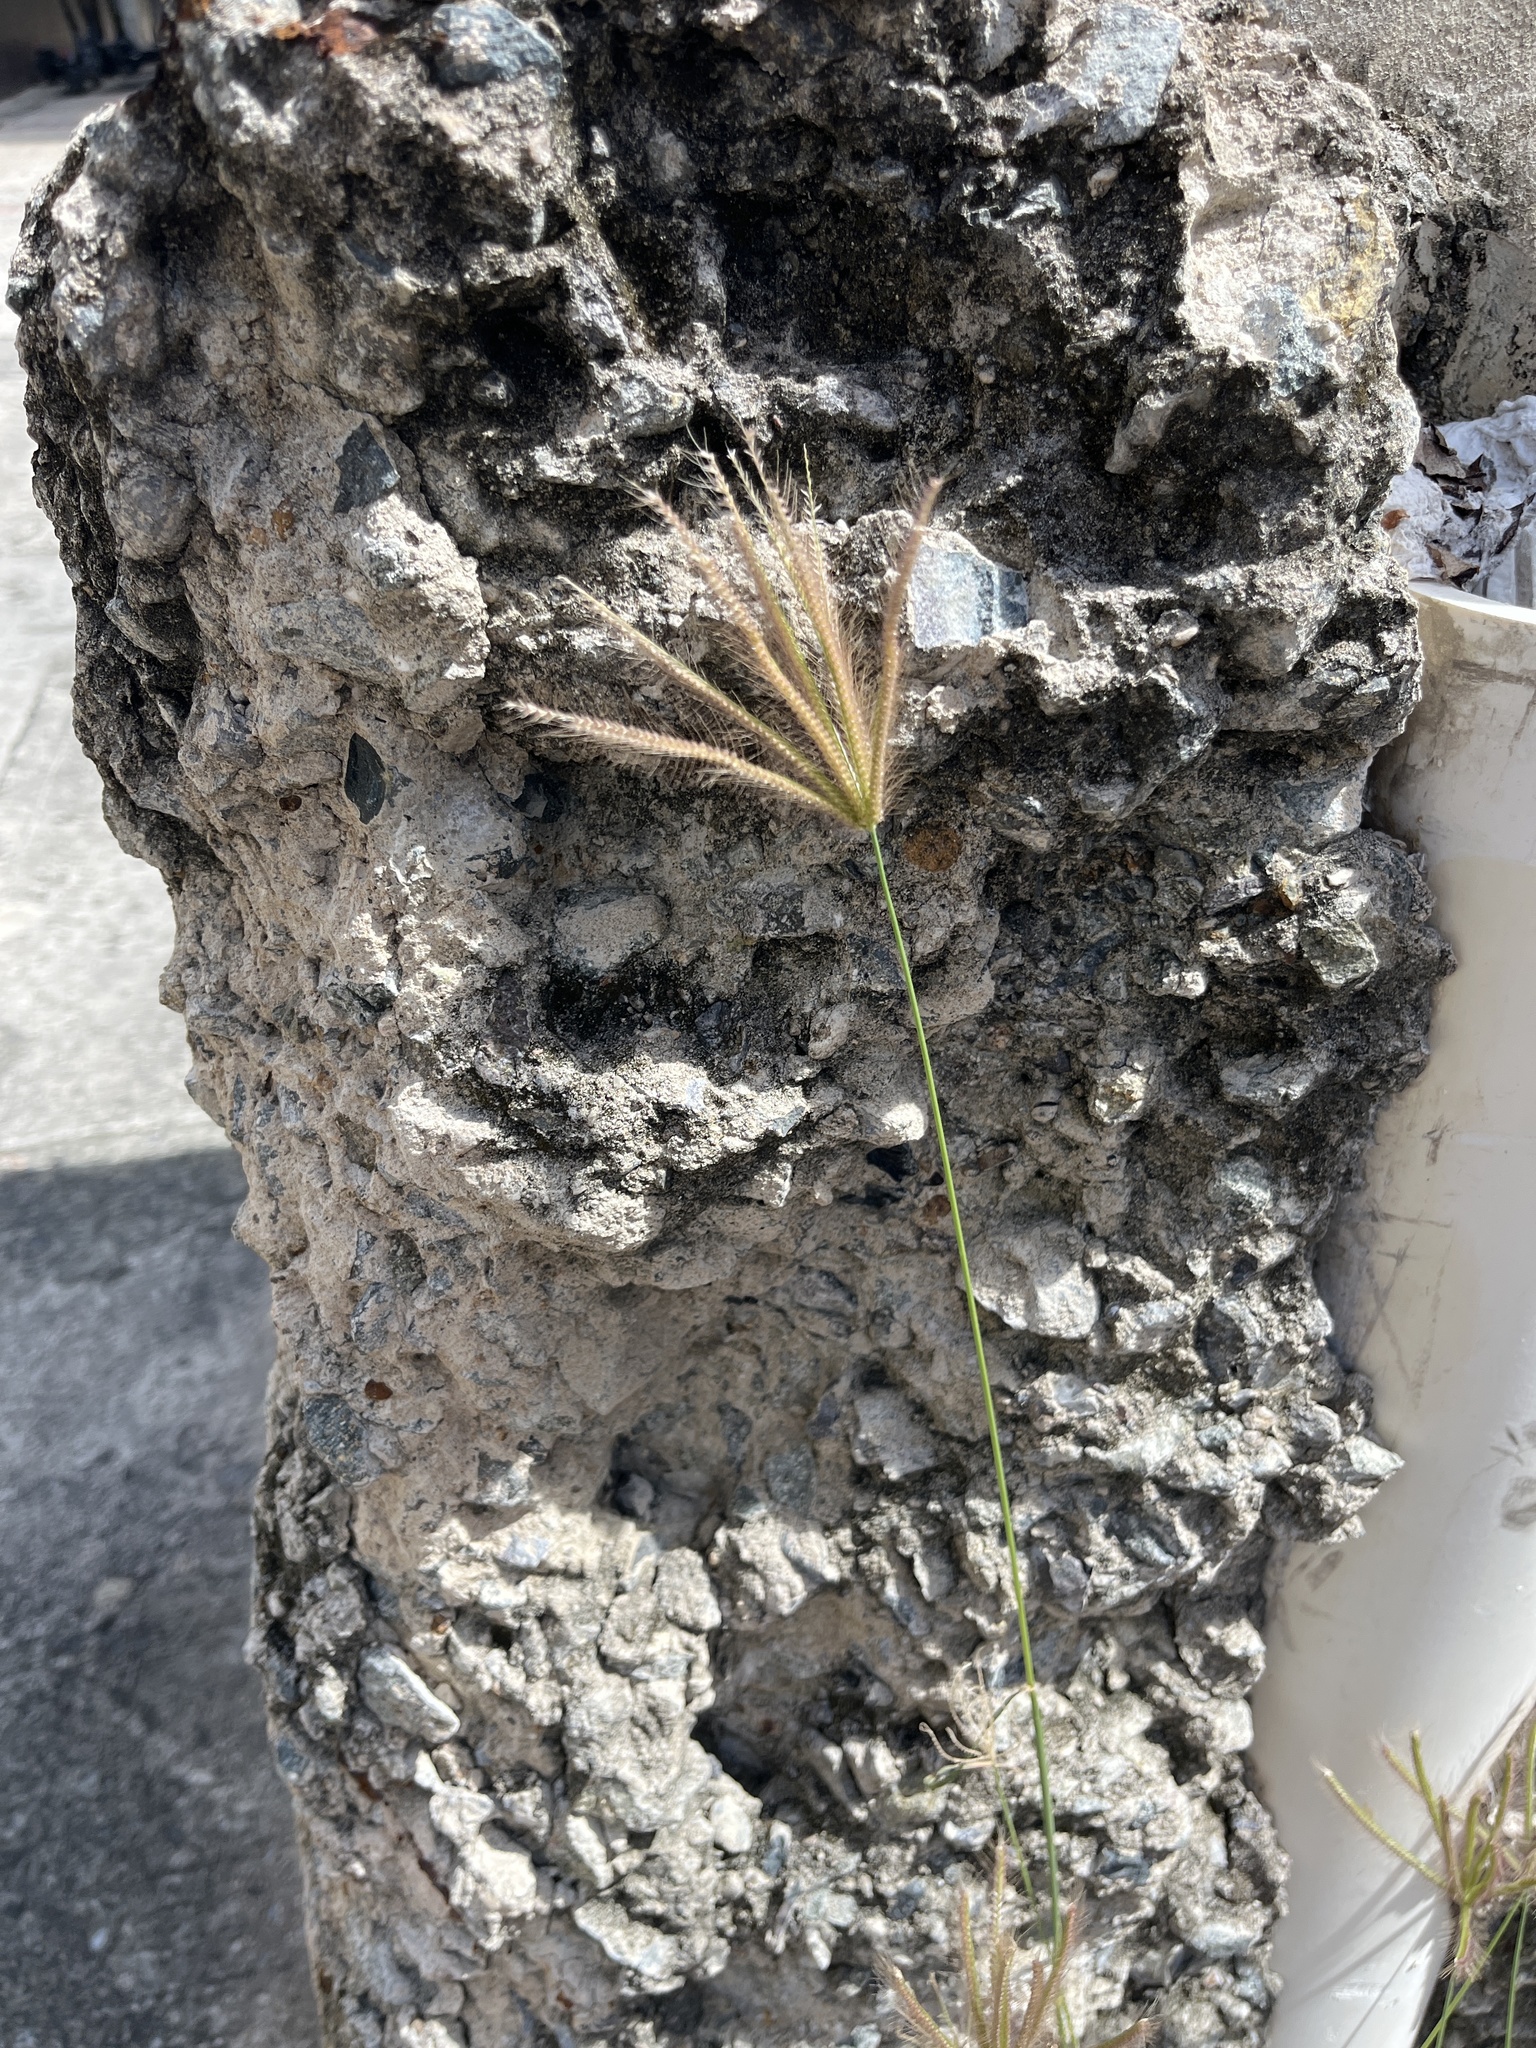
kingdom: Plantae
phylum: Tracheophyta
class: Liliopsida
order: Poales
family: Poaceae
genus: Chloris
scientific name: Chloris barbata
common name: Swollen fingergrass
